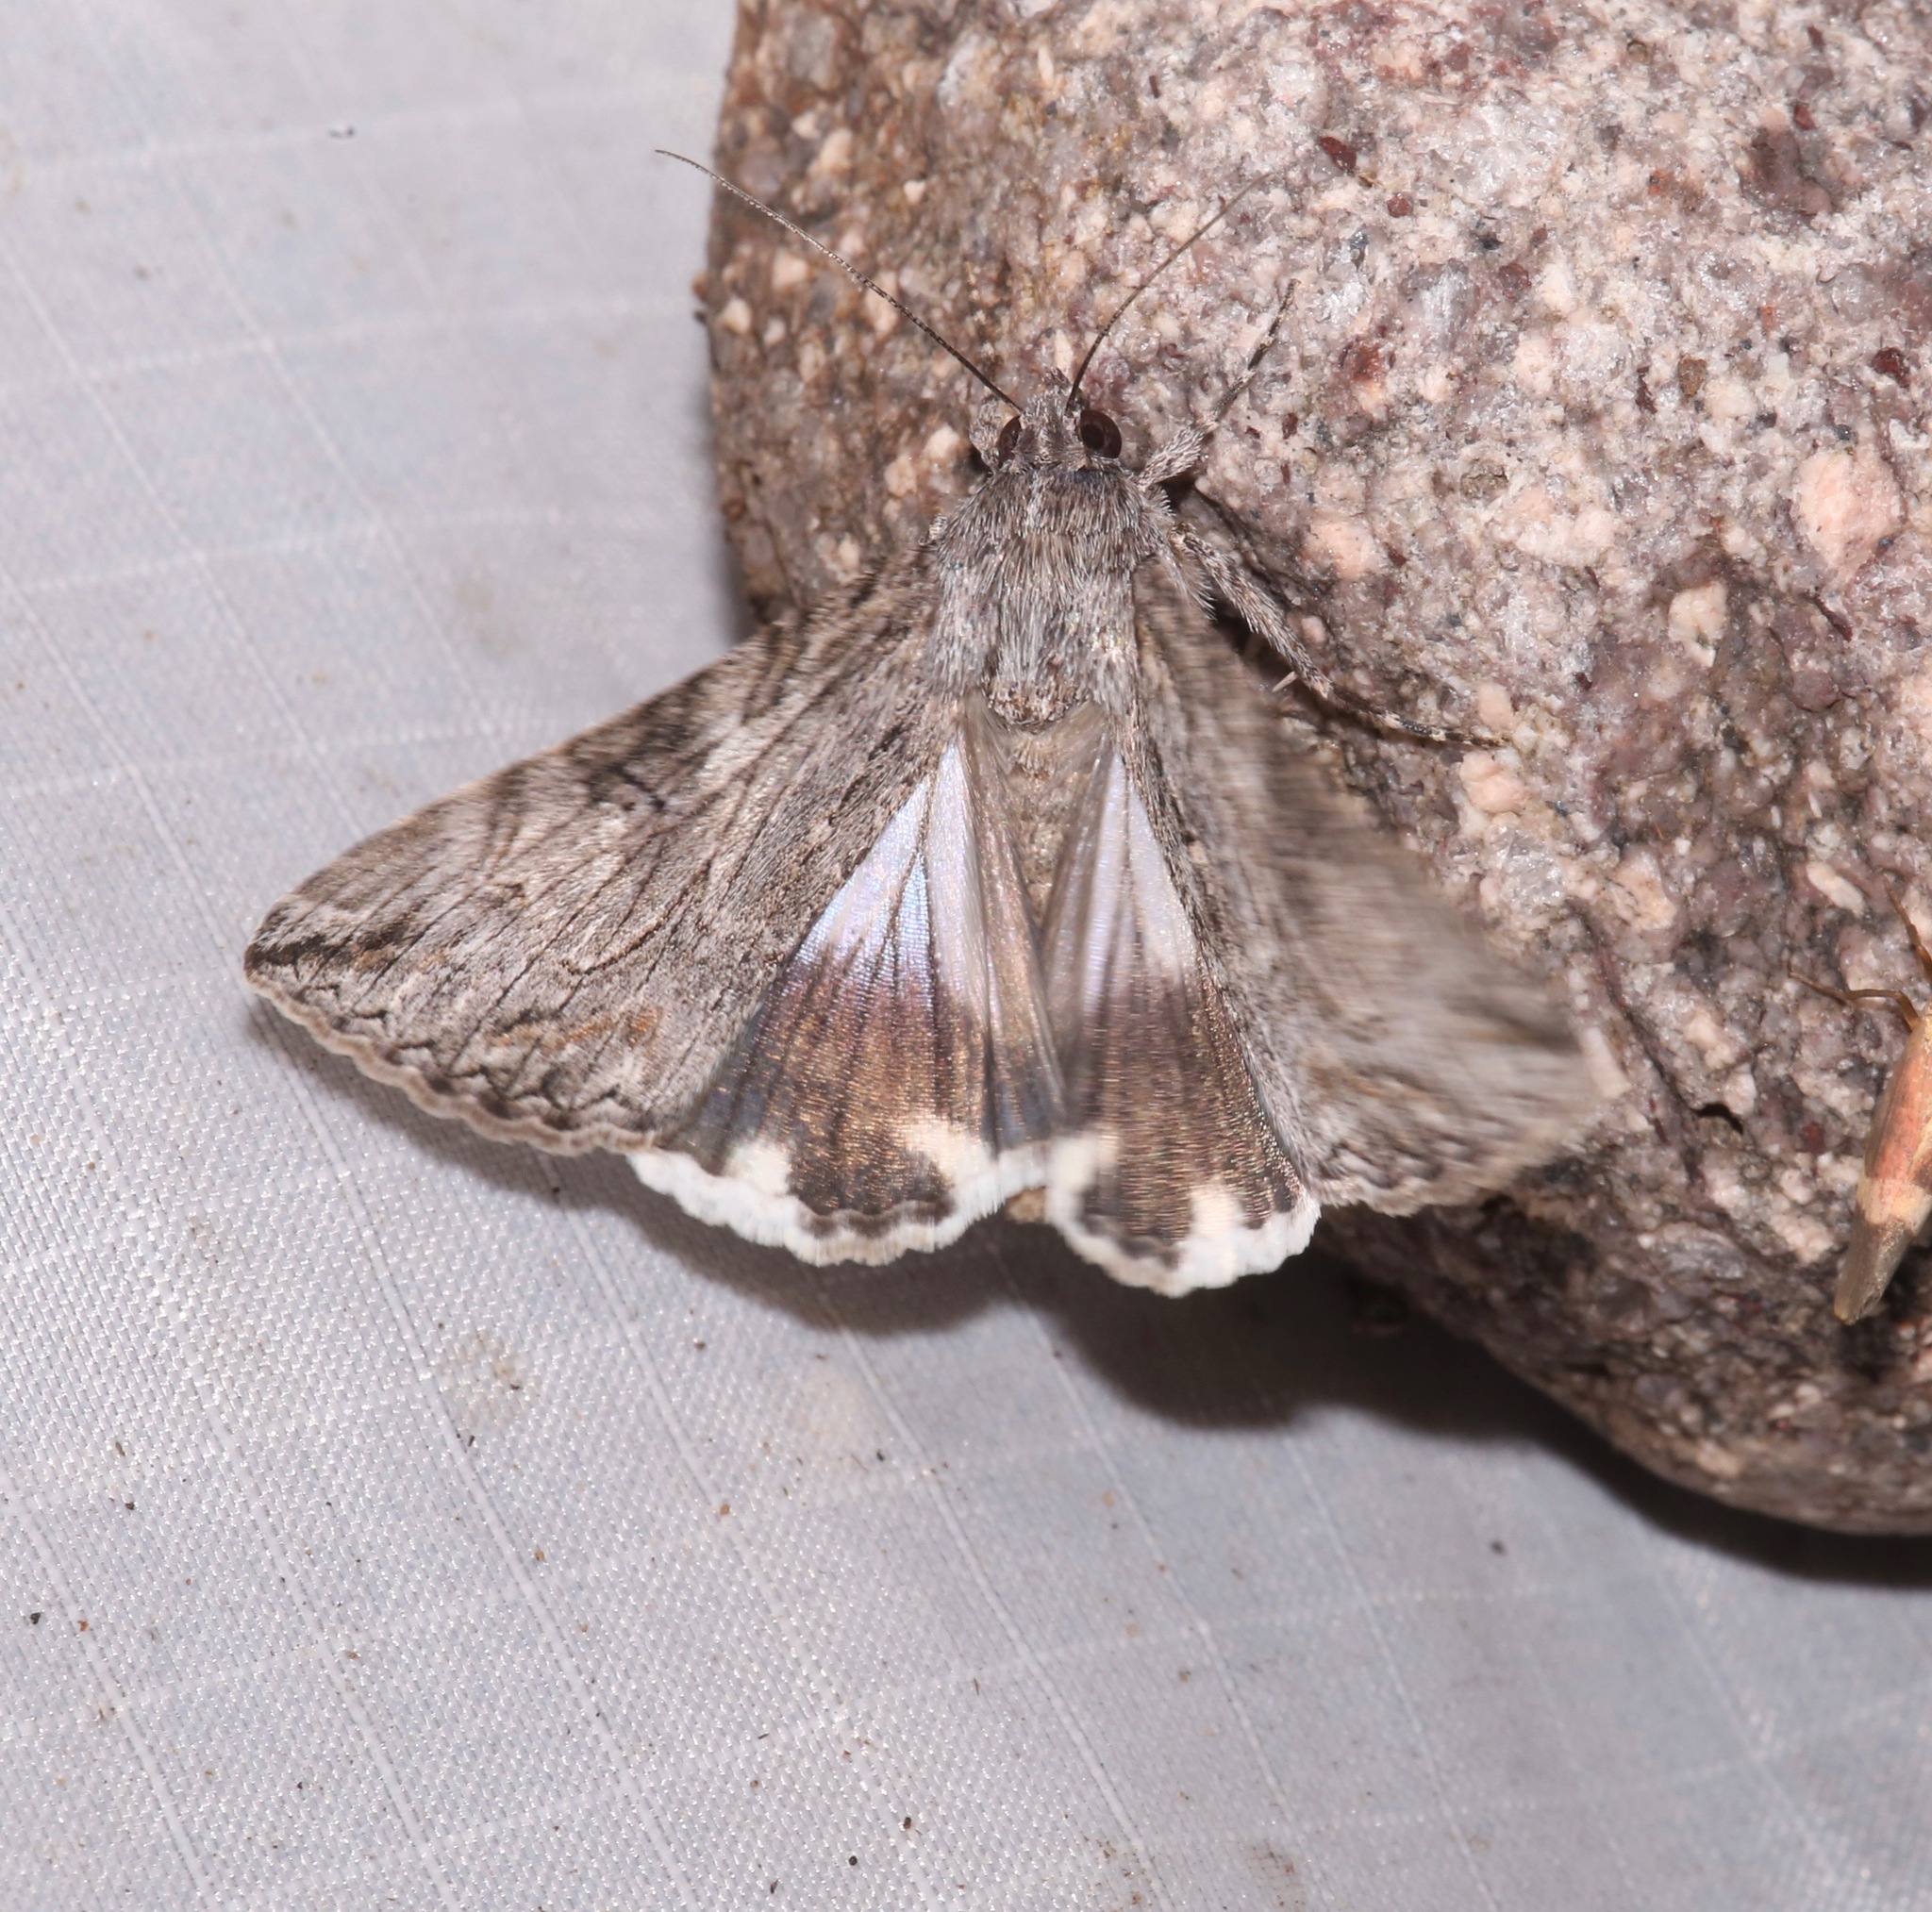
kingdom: Animalia
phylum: Arthropoda
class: Insecta
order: Lepidoptera
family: Erebidae
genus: Melipotis
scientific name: Melipotis jucunda
